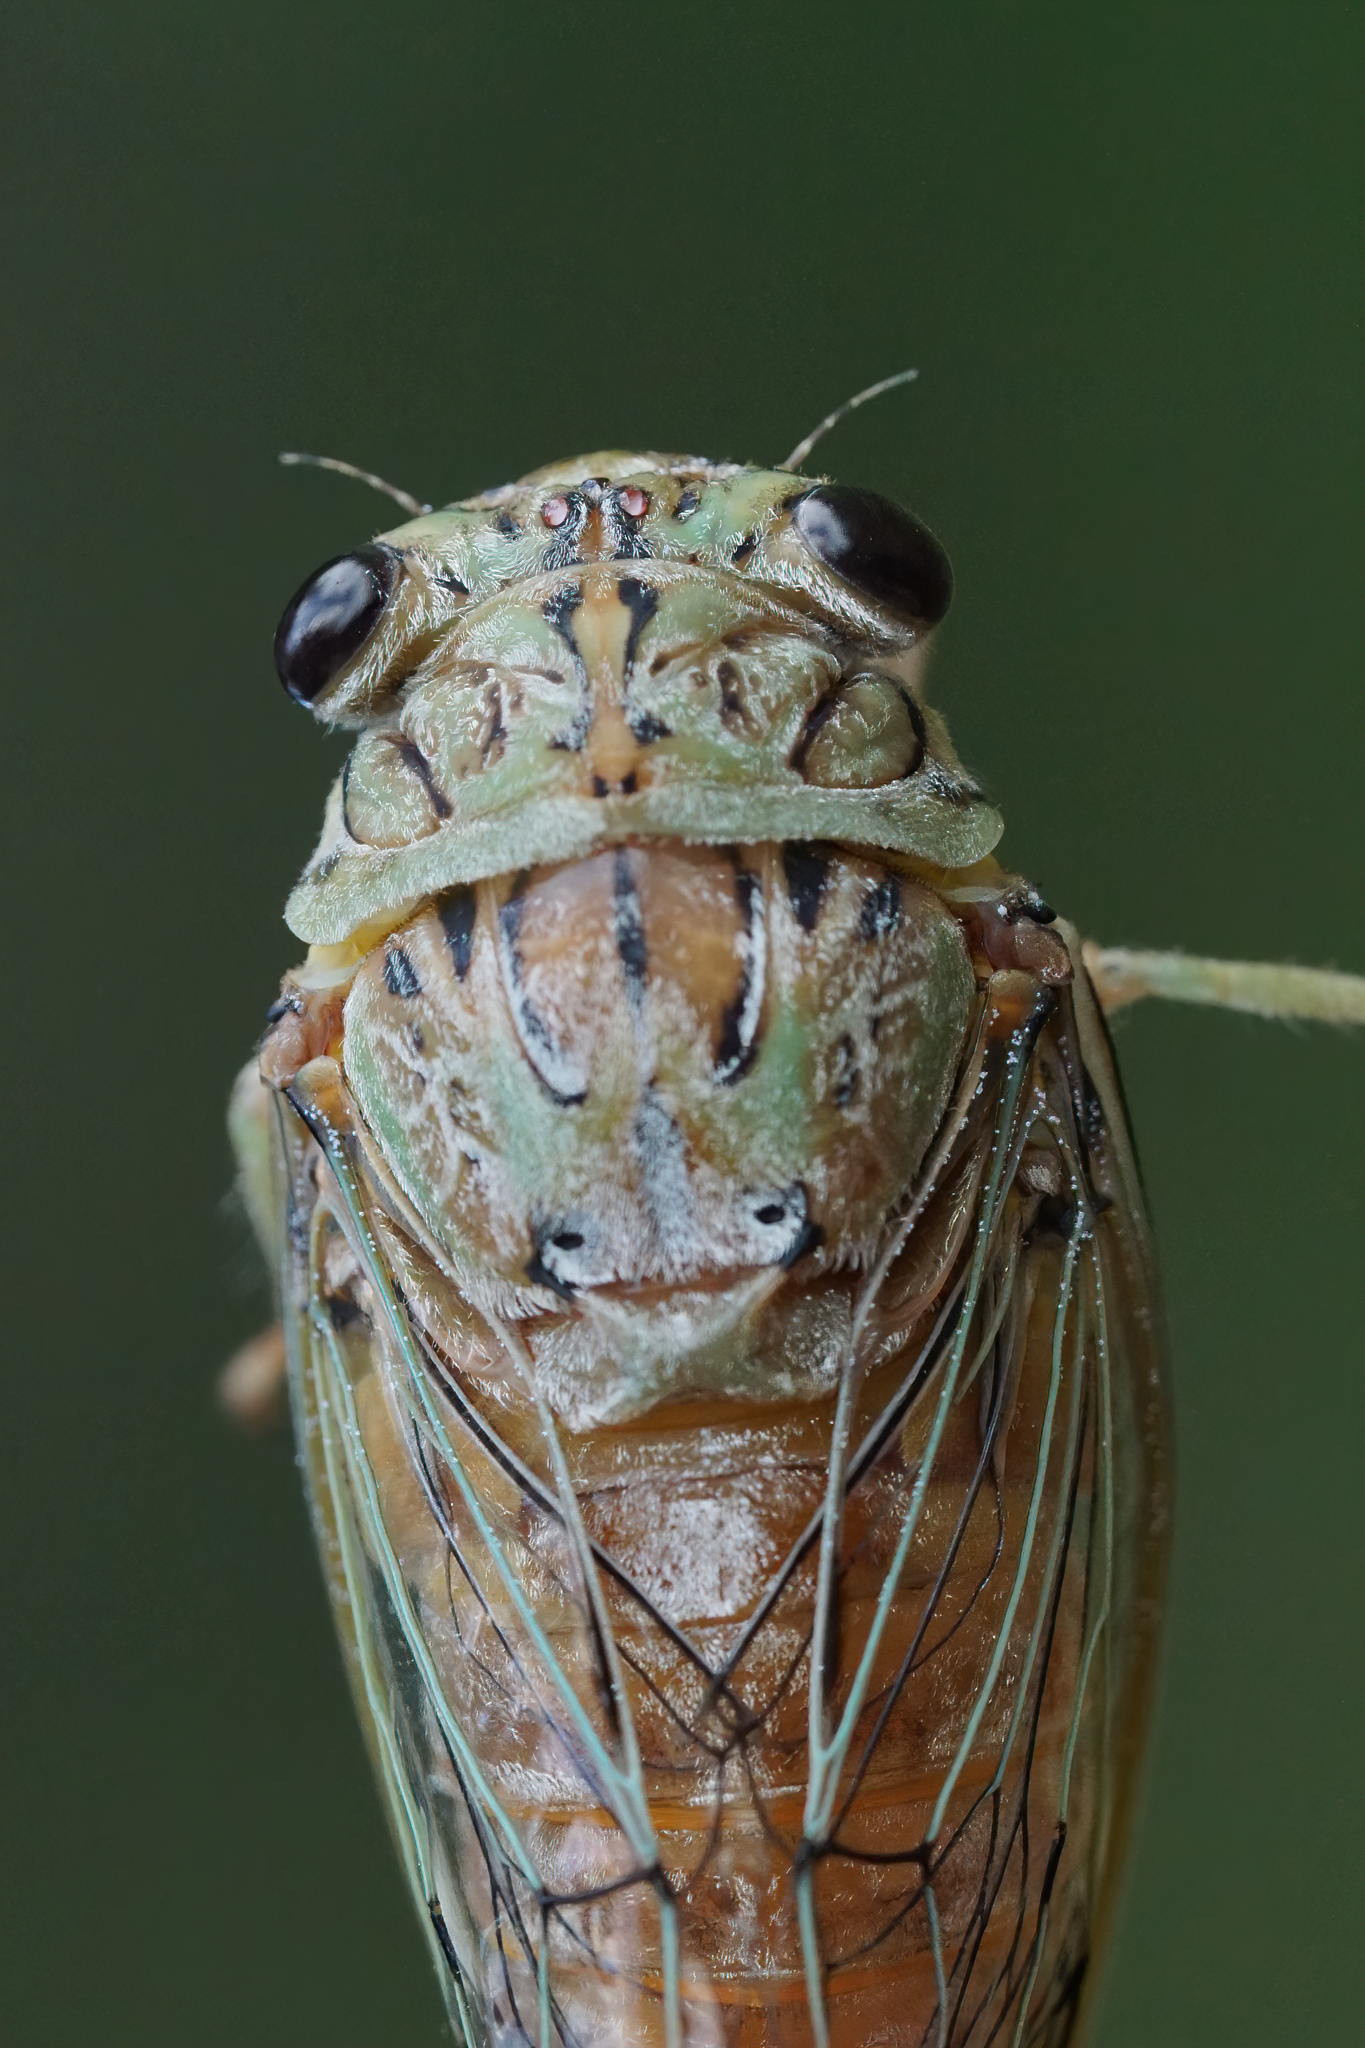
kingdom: Animalia
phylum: Arthropoda
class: Insecta
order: Hemiptera
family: Cicadidae
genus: Neocicada
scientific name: Neocicada hieroglyphica
